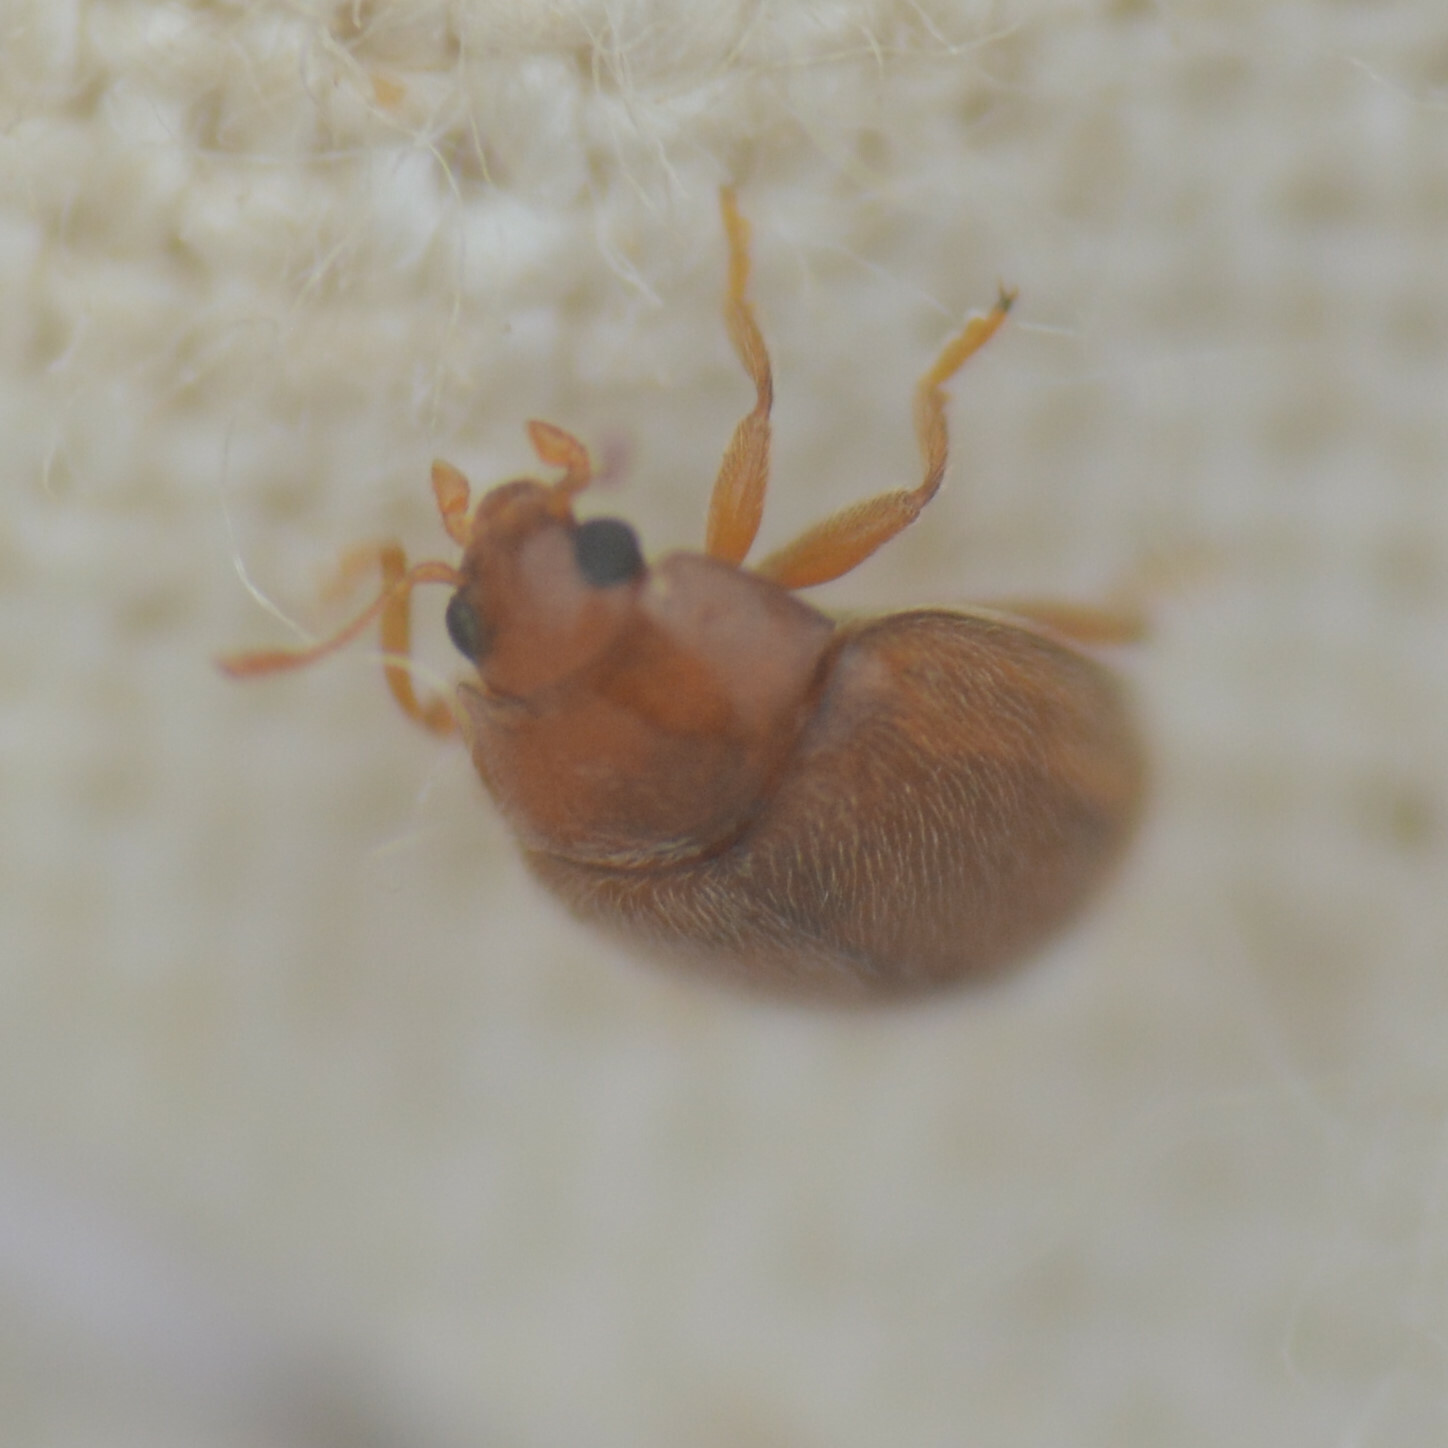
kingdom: Animalia
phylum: Arthropoda
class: Insecta
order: Coleoptera
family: Coccinellidae
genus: Rhyzobius
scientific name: Rhyzobius litura
